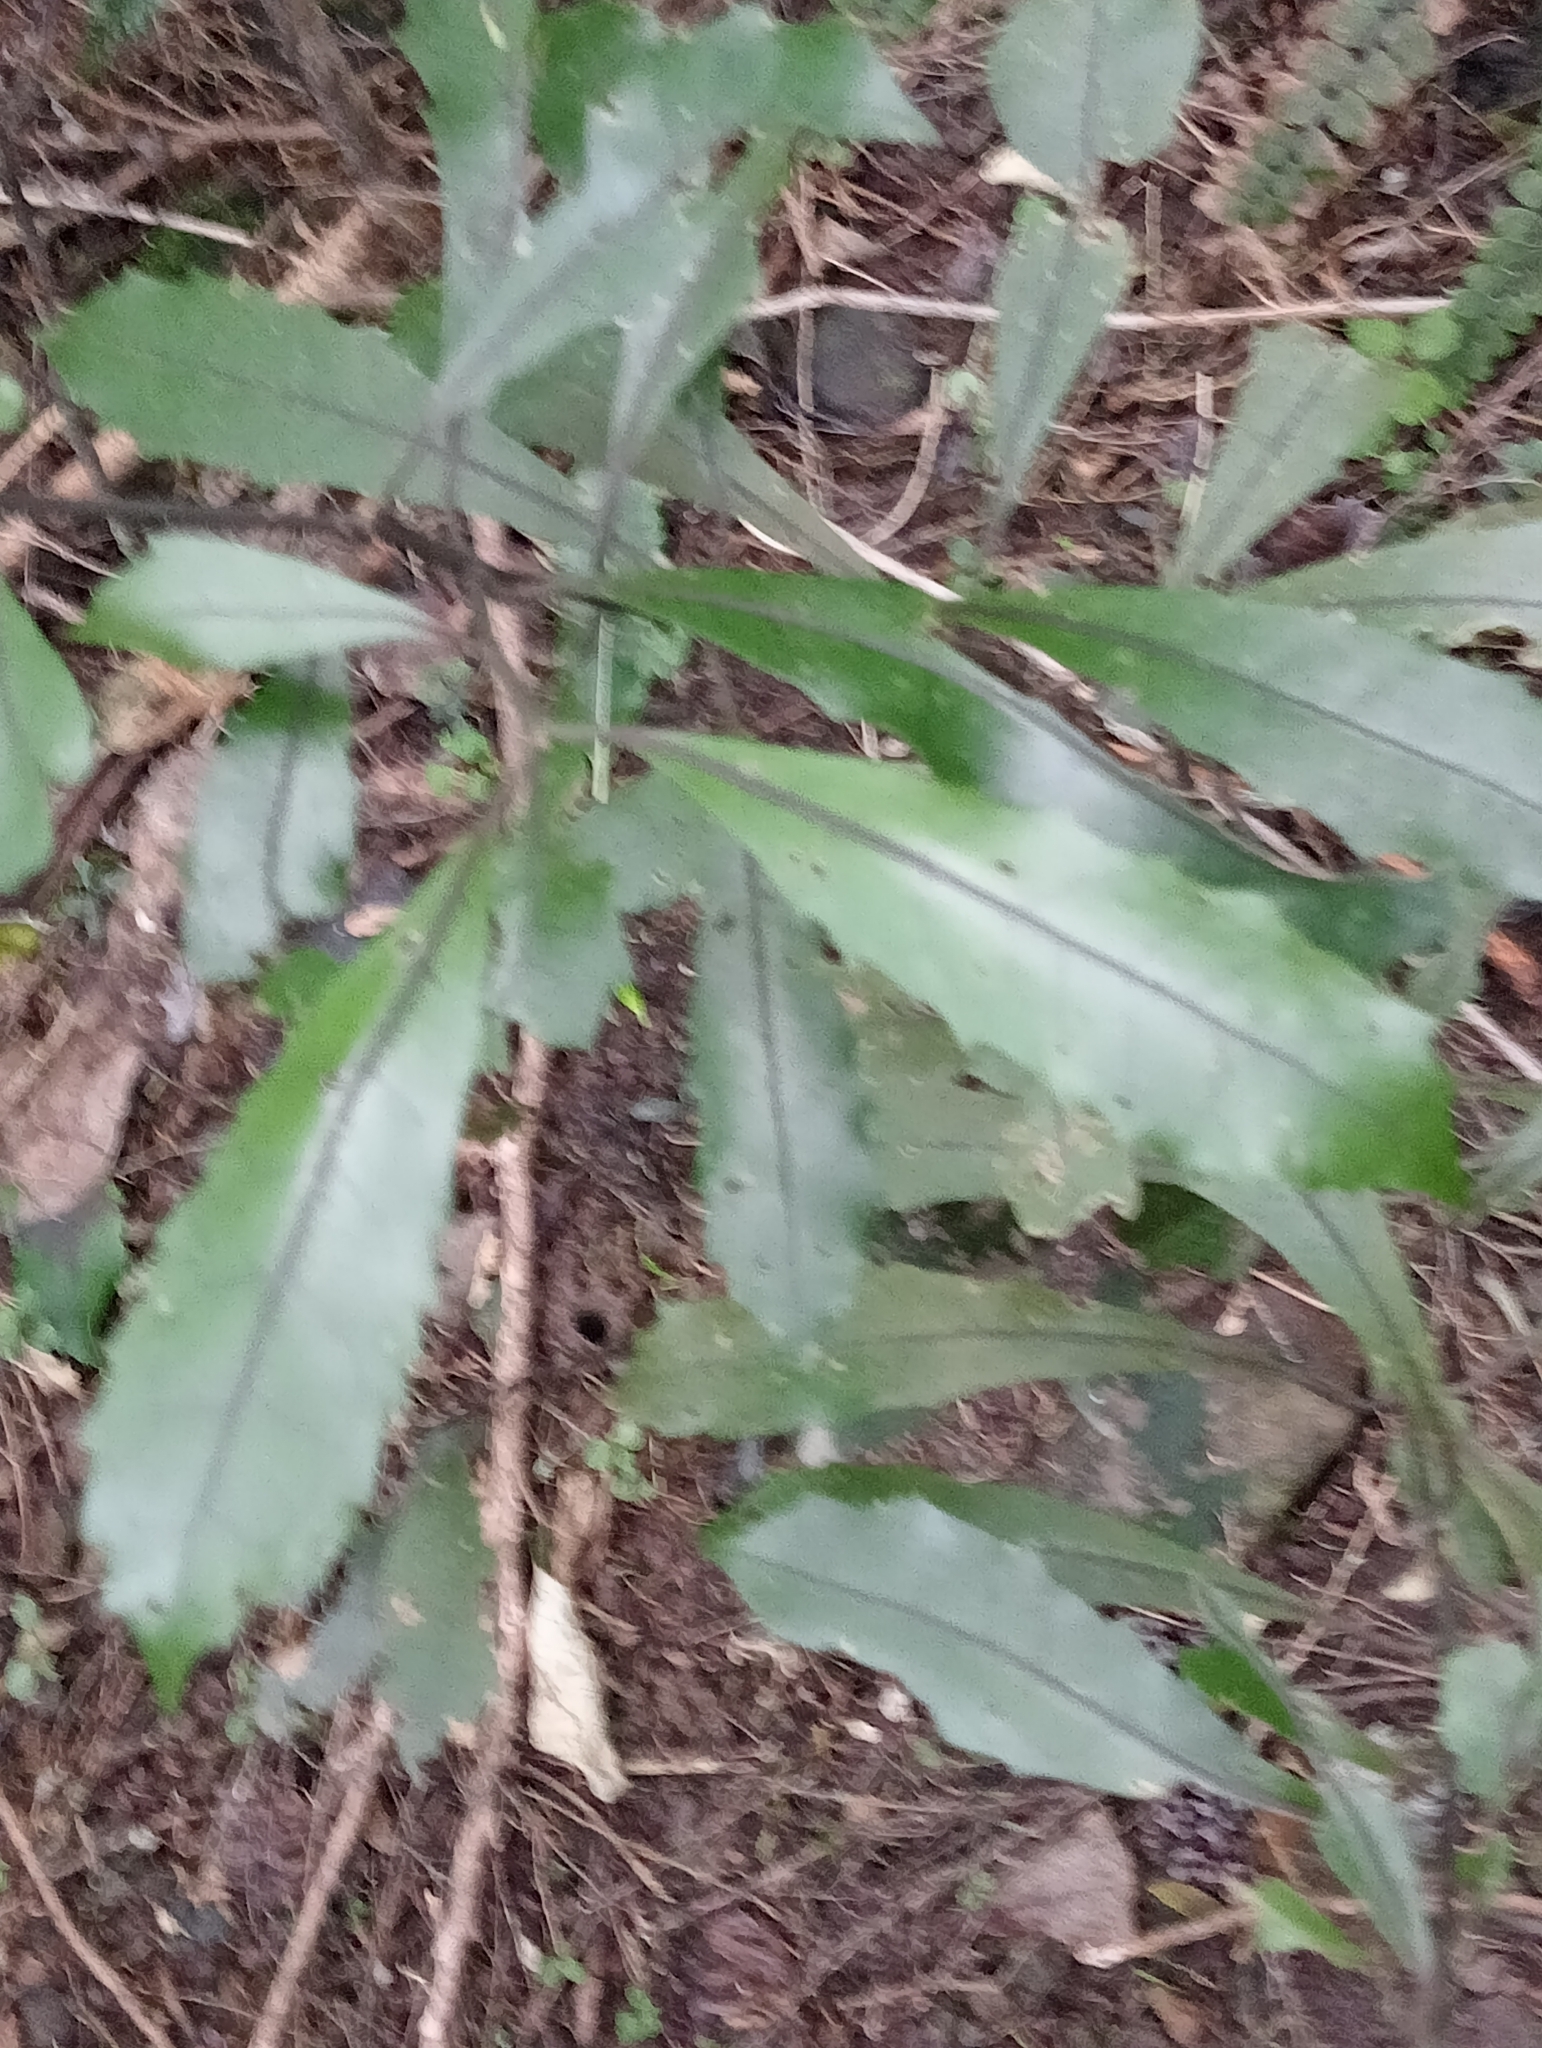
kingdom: Plantae
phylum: Tracheophyta
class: Magnoliopsida
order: Laurales
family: Monimiaceae
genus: Hedycarya
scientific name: Hedycarya arborea
